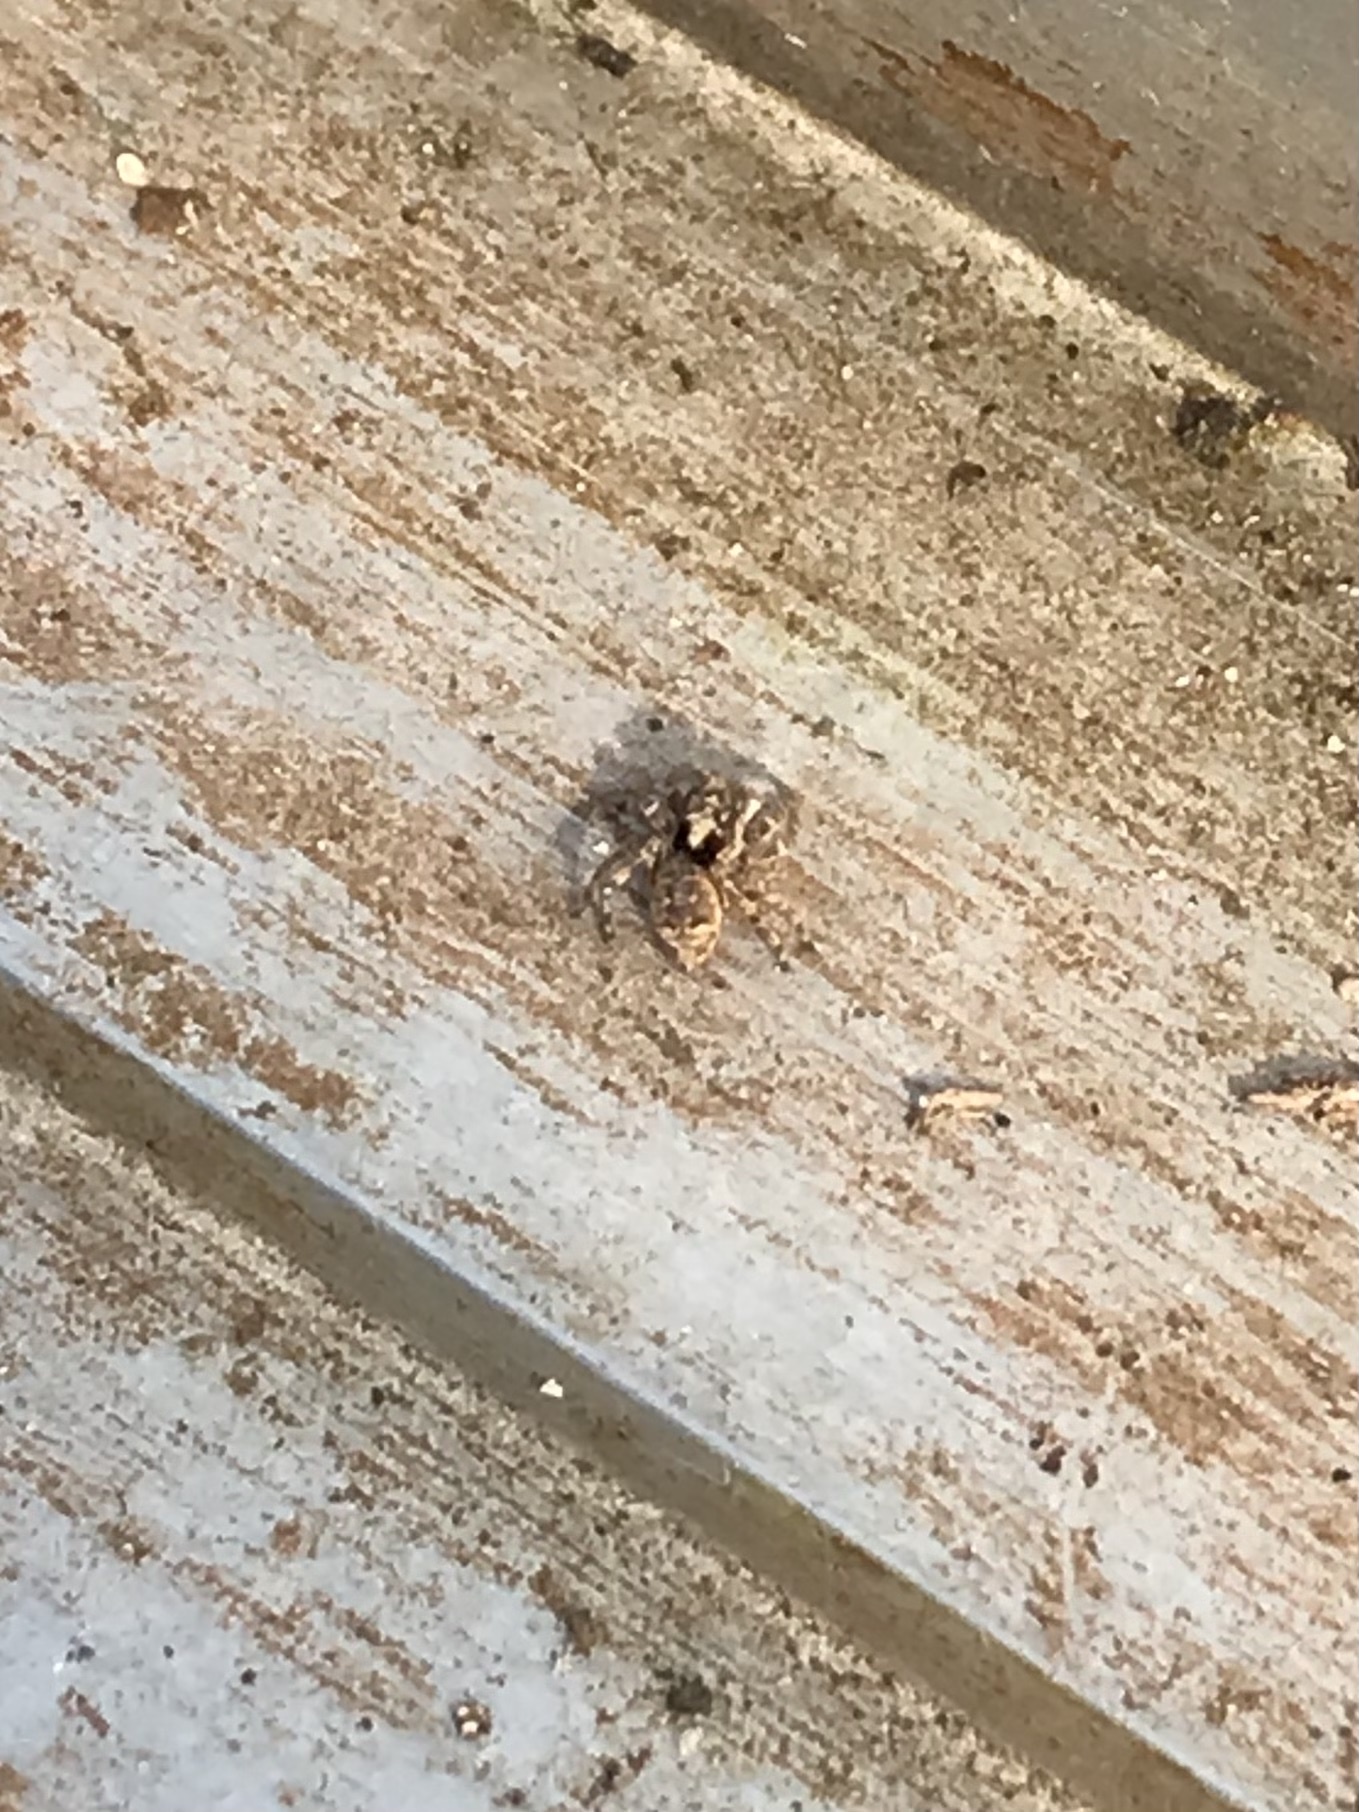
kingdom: Animalia
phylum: Arthropoda
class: Arachnida
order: Araneae
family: Salticidae
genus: Attulus
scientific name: Attulus fasciger
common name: Asiatic wall jumping spider
